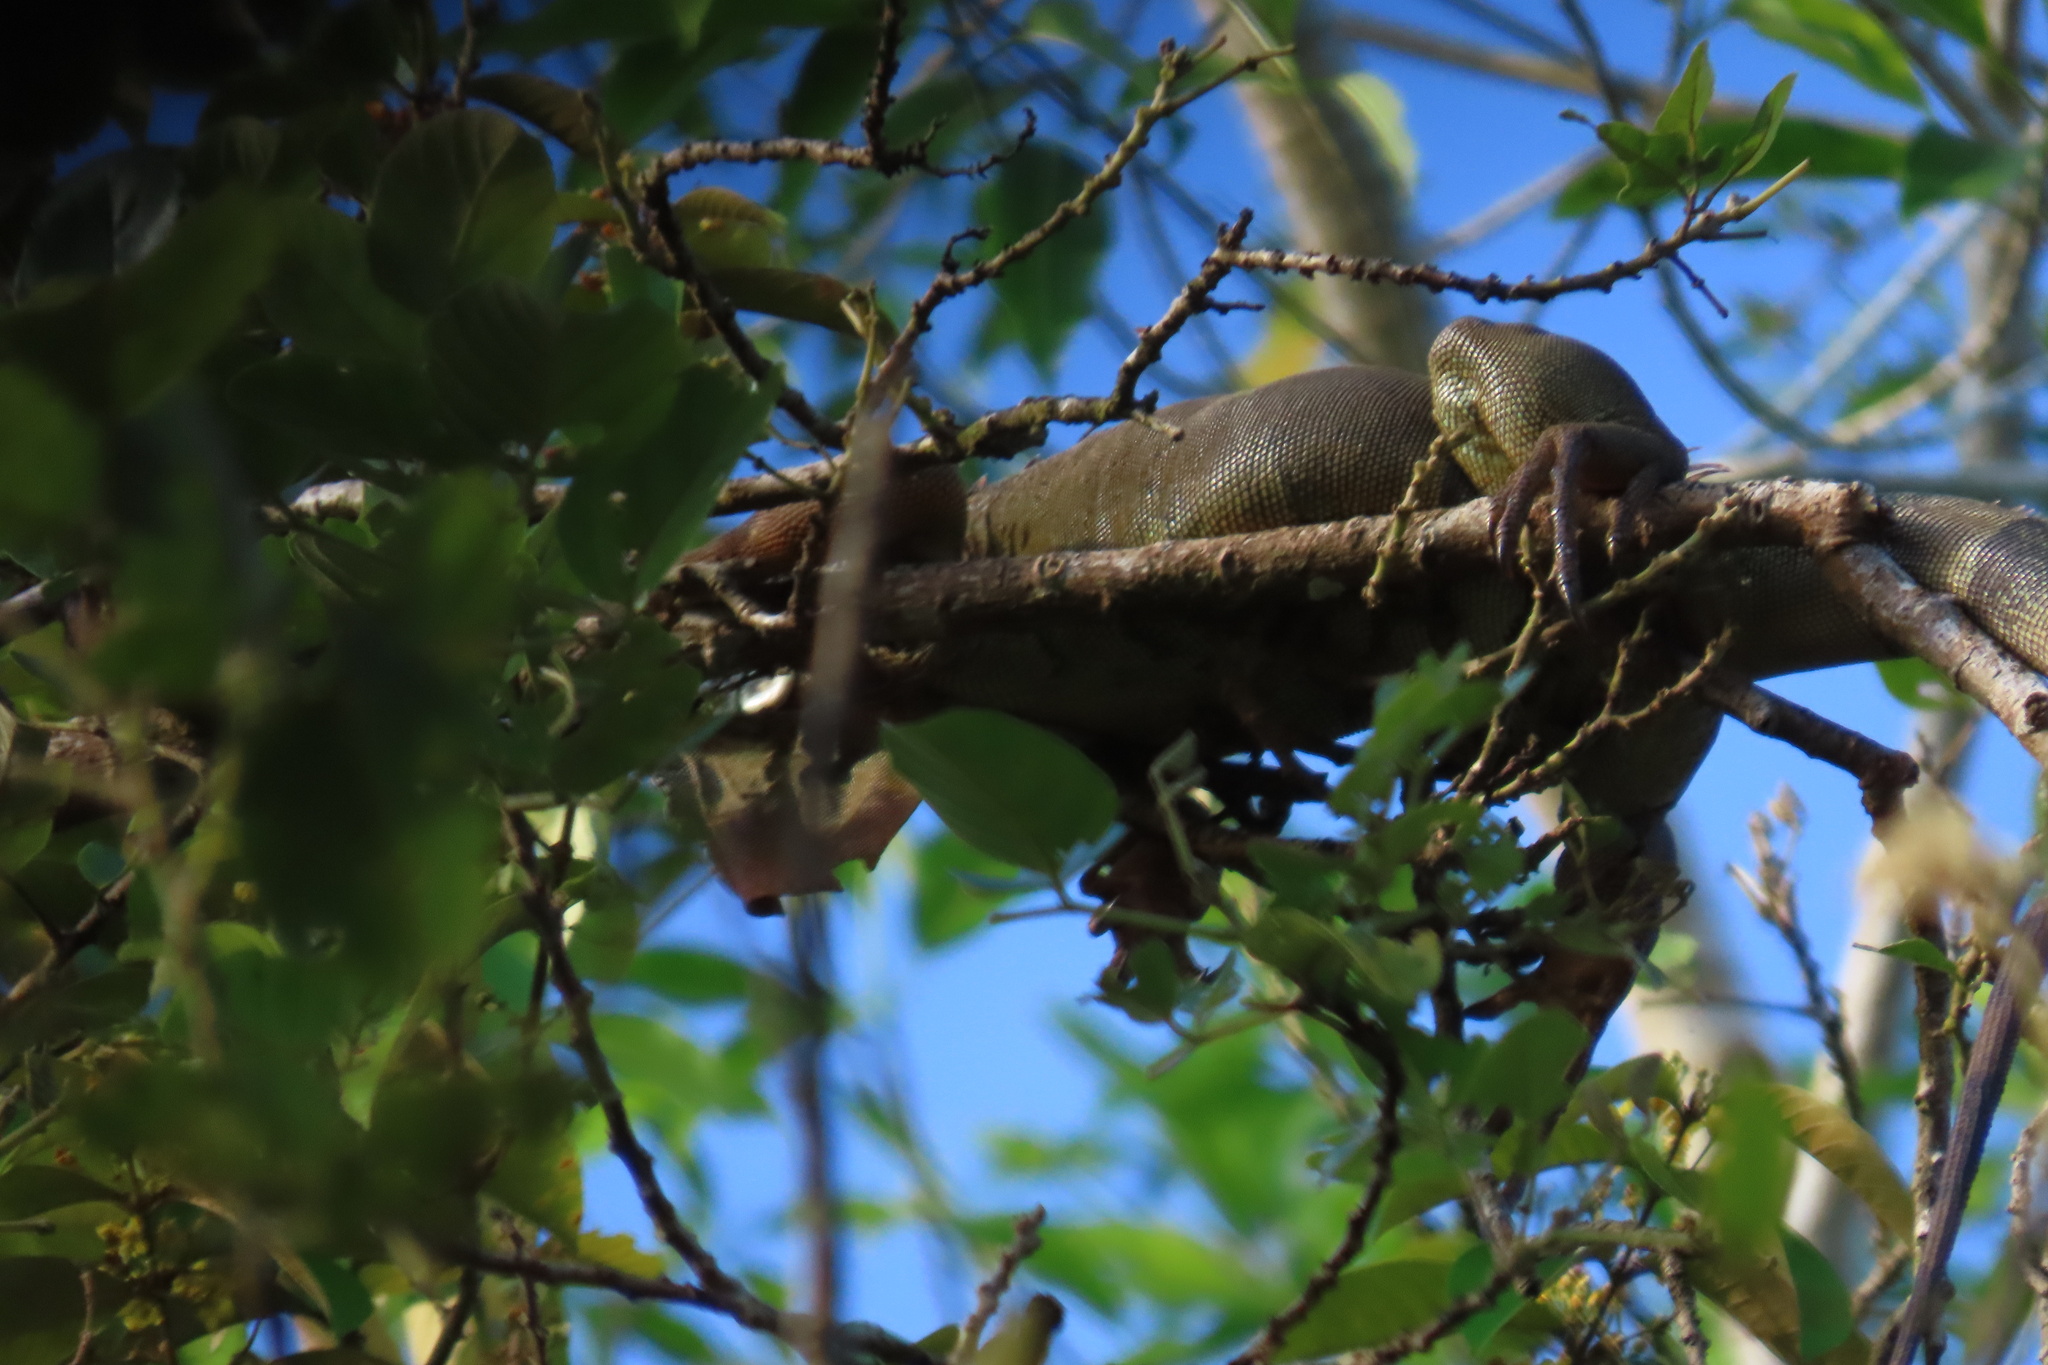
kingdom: Animalia
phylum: Chordata
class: Squamata
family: Iguanidae
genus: Iguana
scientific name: Iguana iguana
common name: Green iguana
